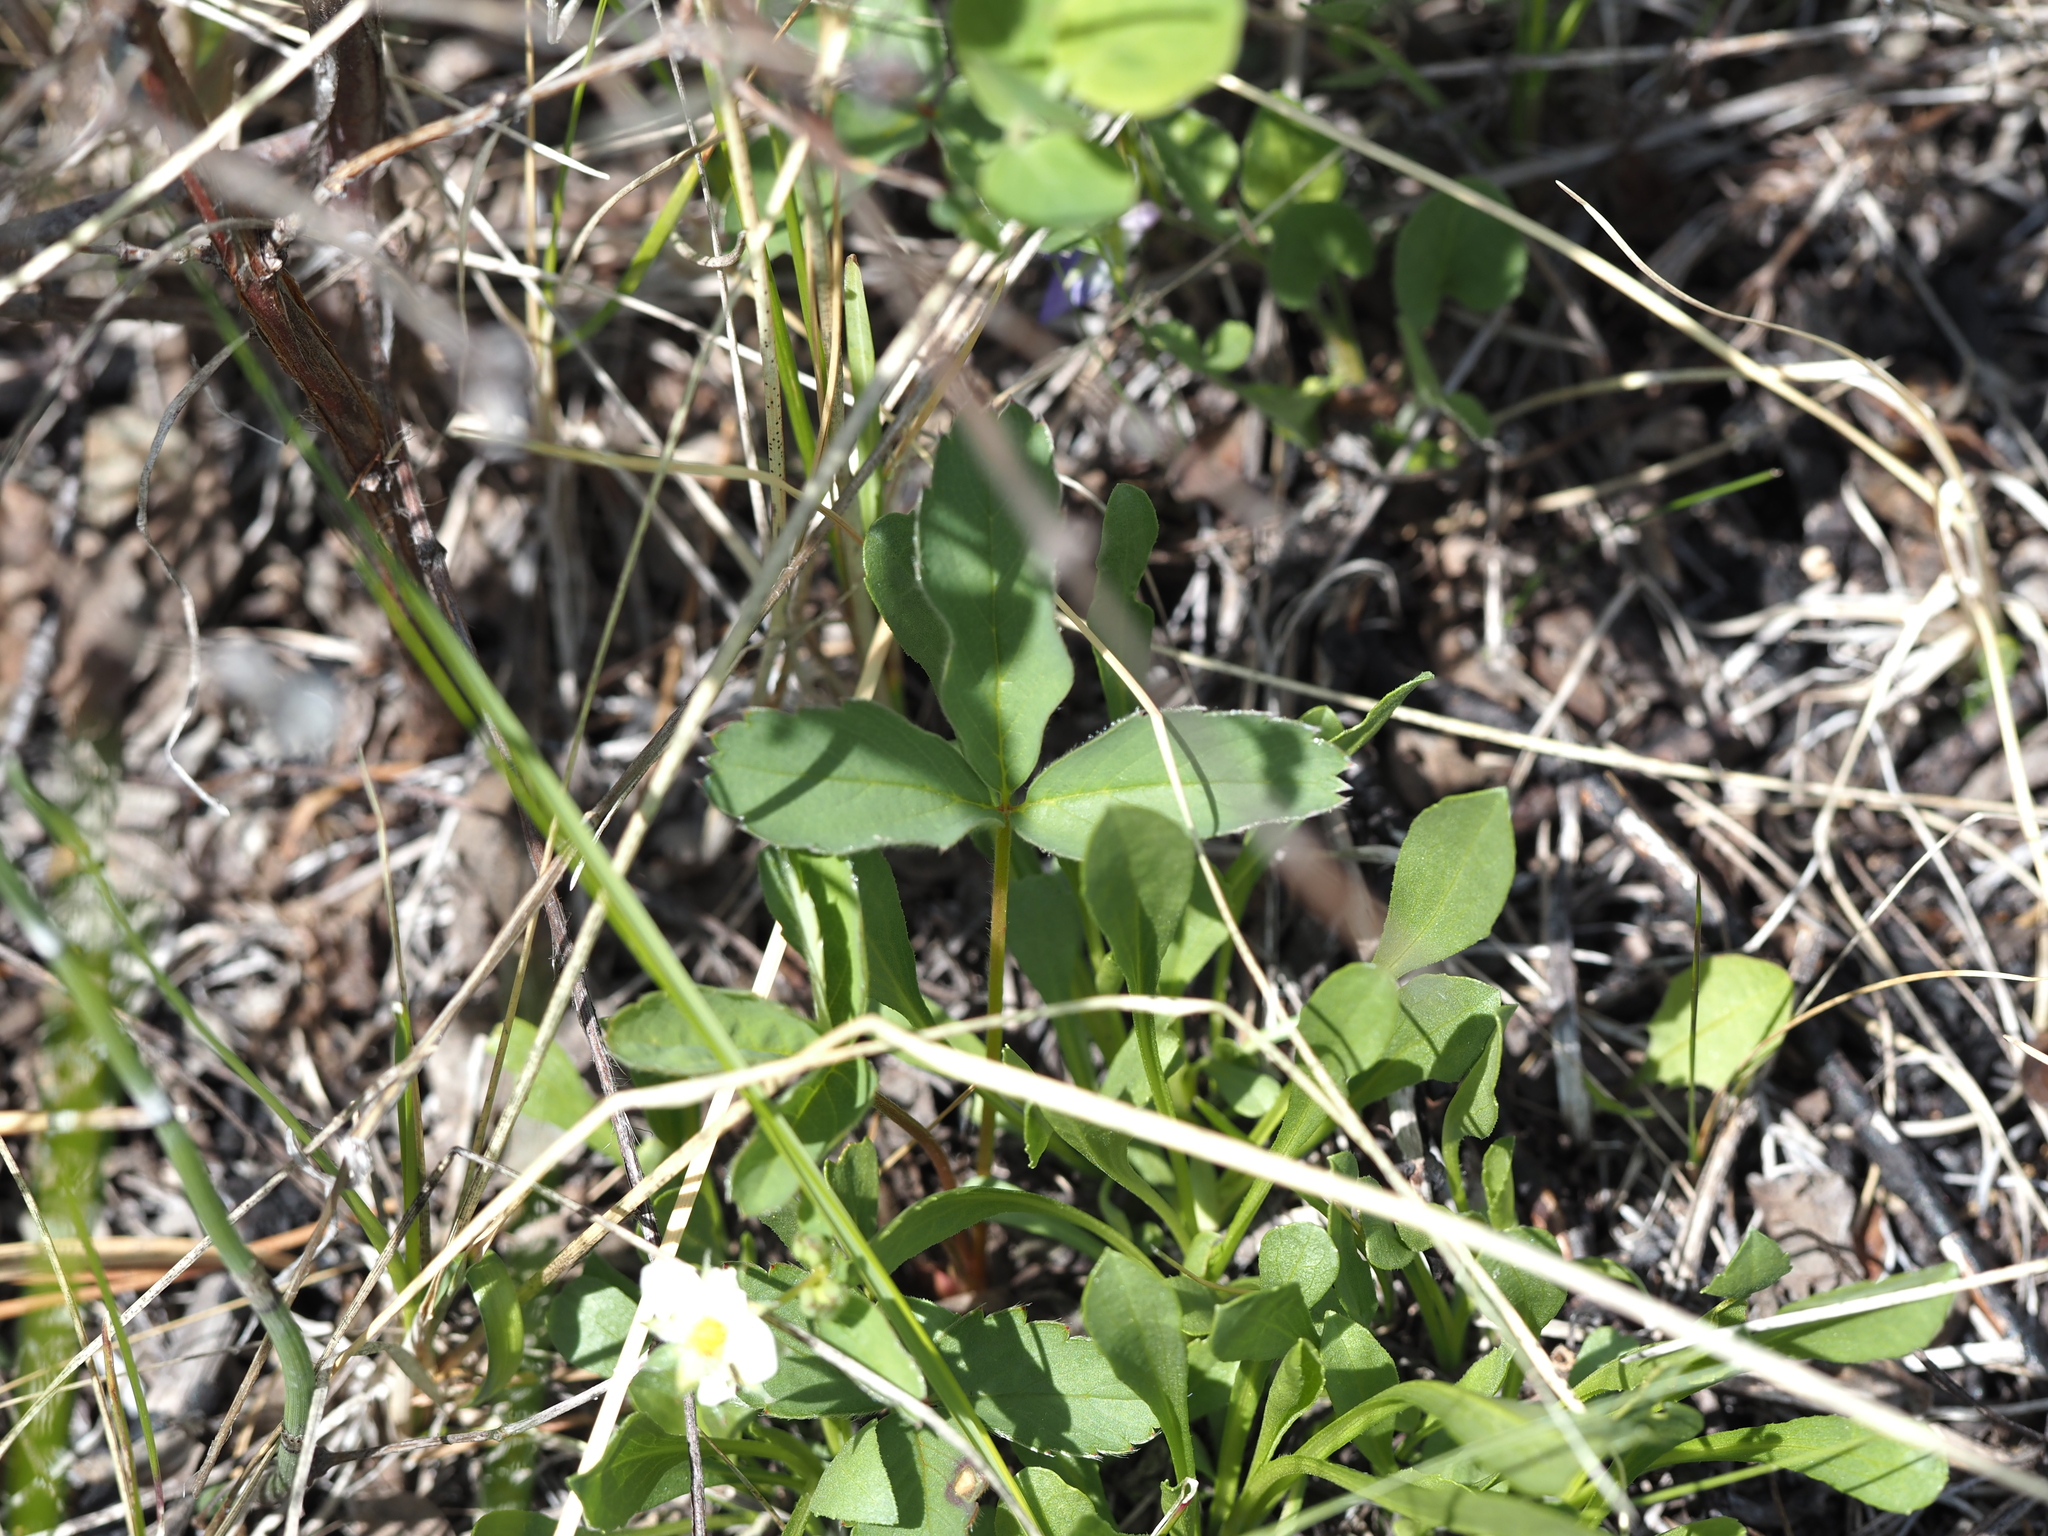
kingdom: Plantae
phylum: Tracheophyta
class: Magnoliopsida
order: Rosales
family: Rosaceae
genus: Fragaria
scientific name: Fragaria virginiana
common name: Thickleaved wild strawberry
